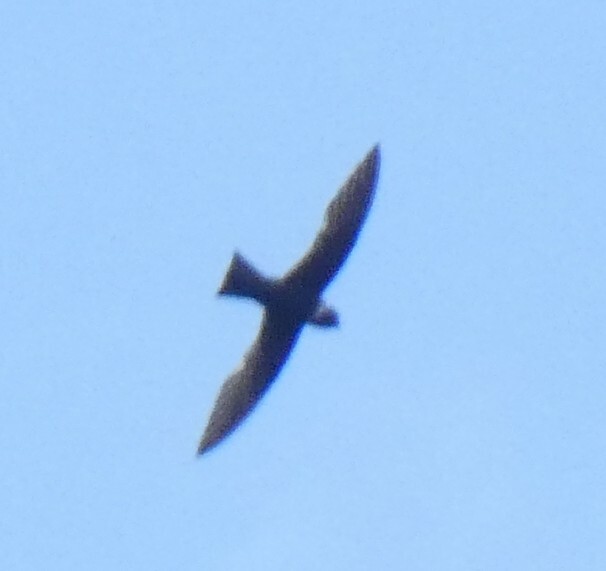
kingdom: Animalia
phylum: Chordata
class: Aves
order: Apodiformes
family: Apodidae
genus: Streptoprocne
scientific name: Streptoprocne zonaris
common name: White-collared swift
